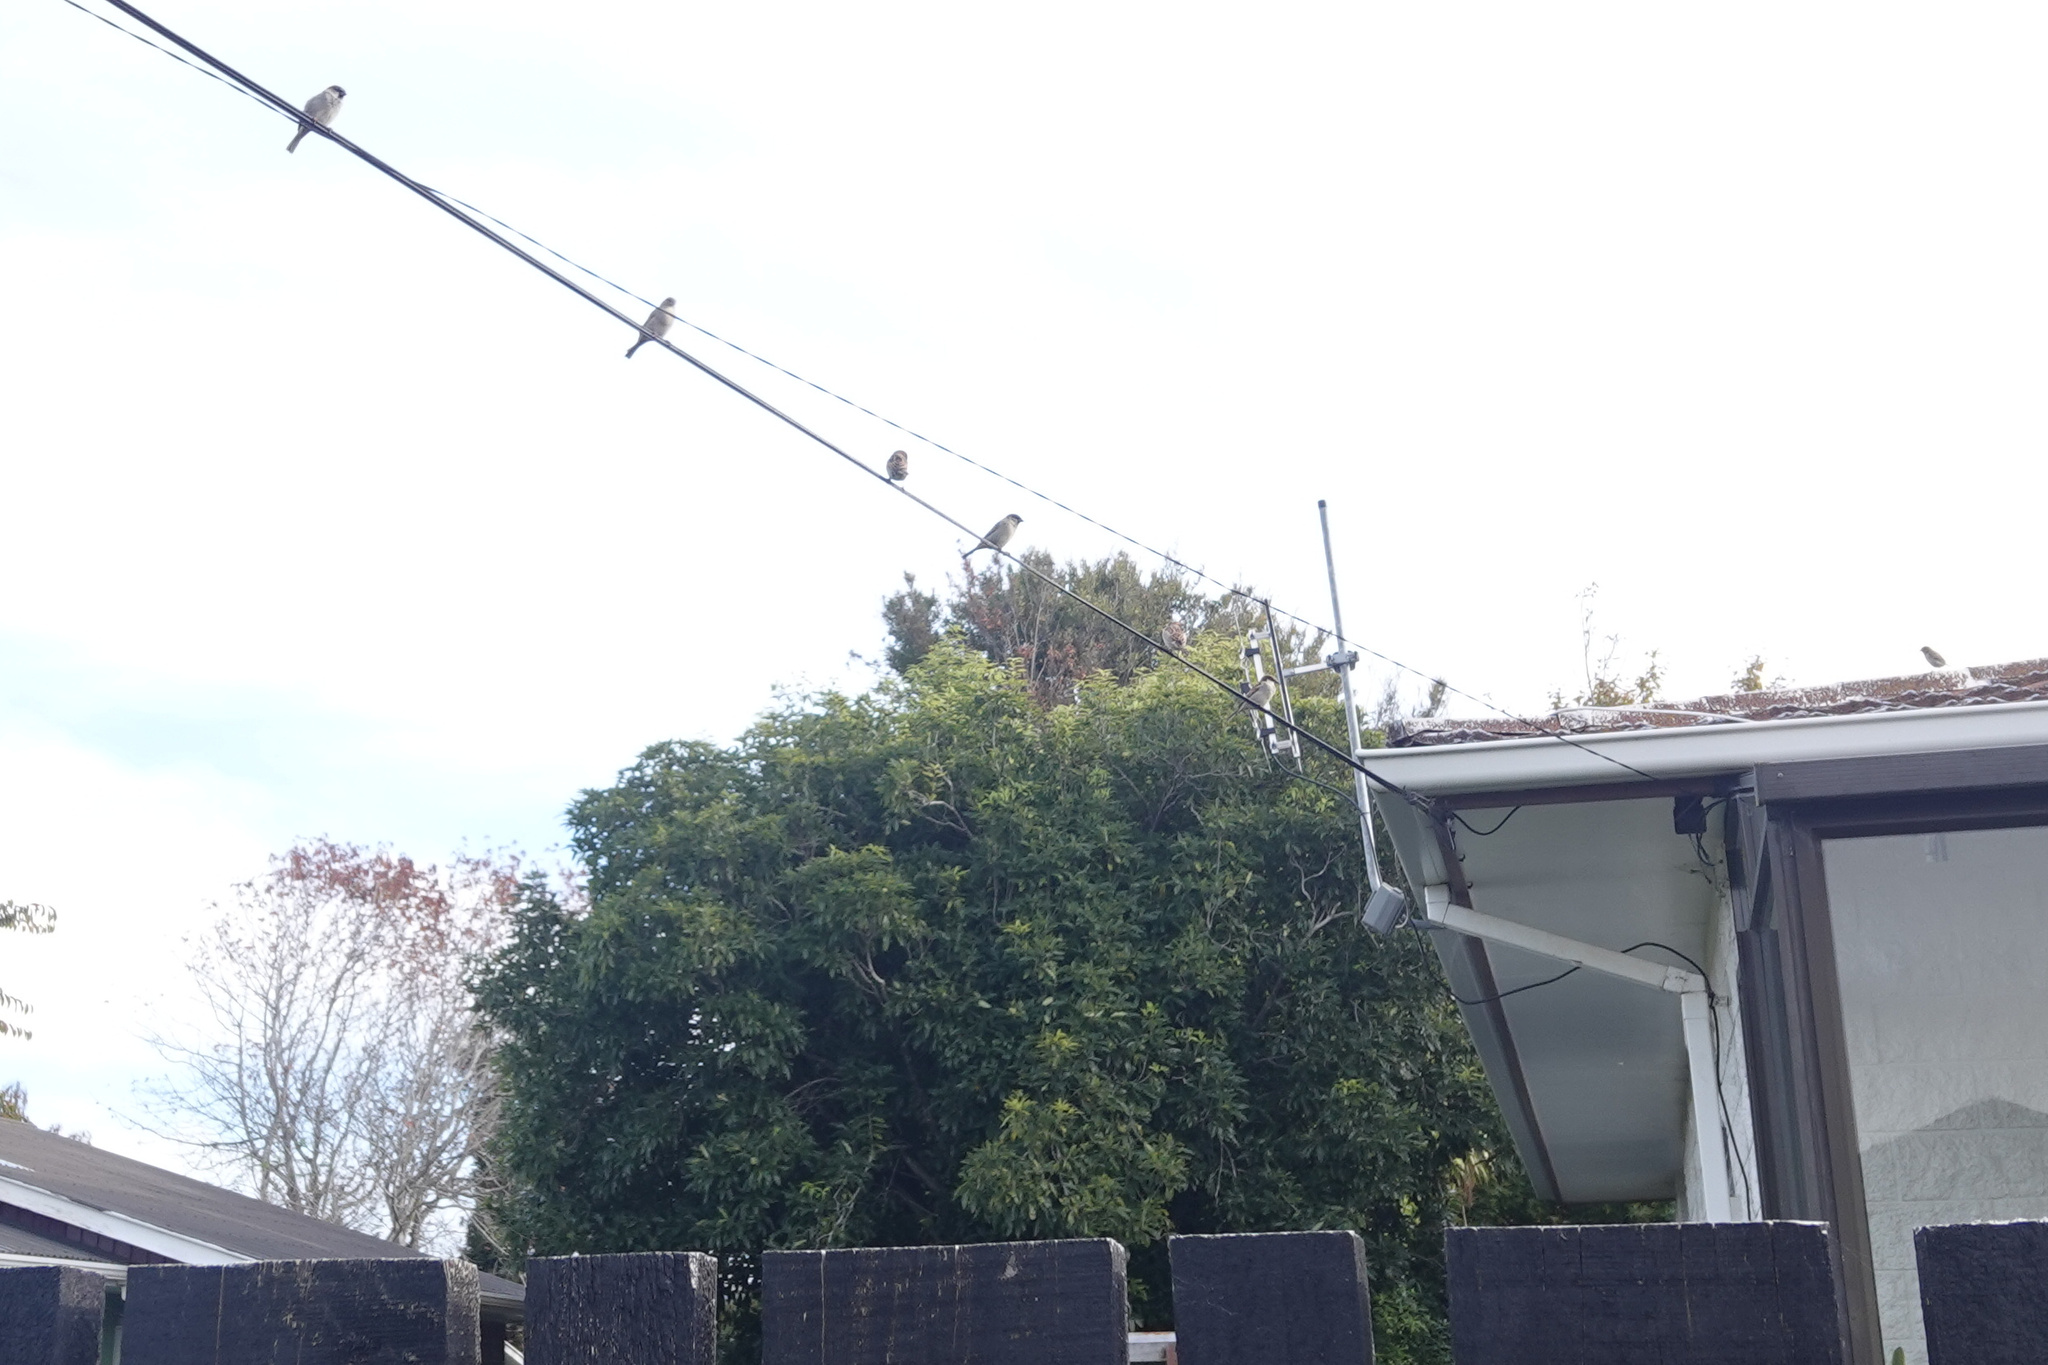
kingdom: Animalia
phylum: Chordata
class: Aves
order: Passeriformes
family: Passeridae
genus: Passer
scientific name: Passer domesticus
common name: House sparrow
